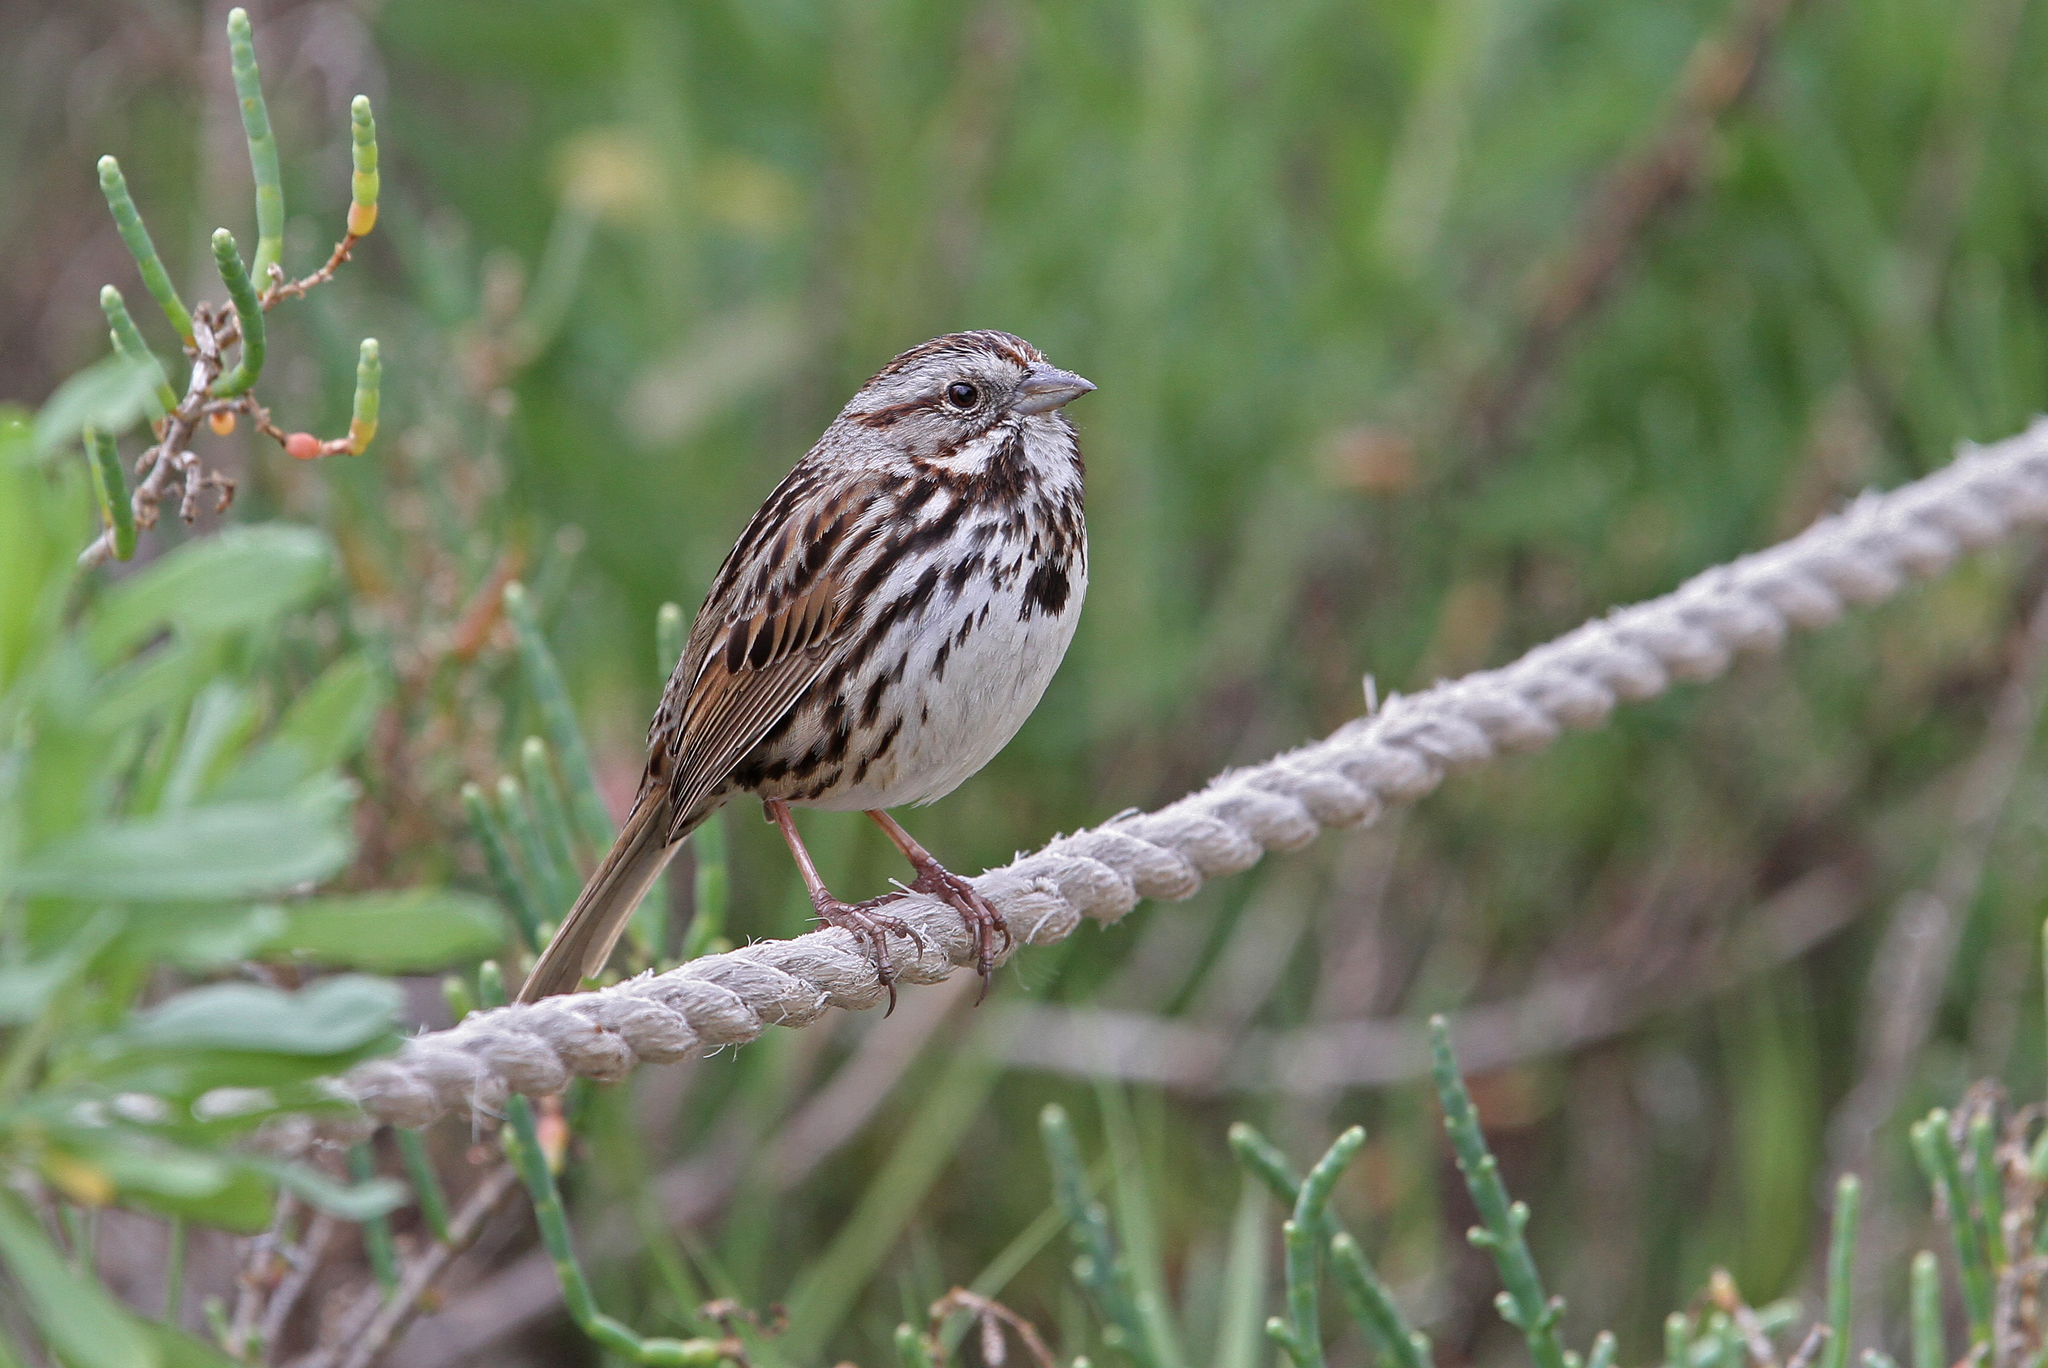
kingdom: Animalia
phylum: Chordata
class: Aves
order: Passeriformes
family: Passerellidae
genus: Melospiza
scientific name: Melospiza melodia
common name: Song sparrow
